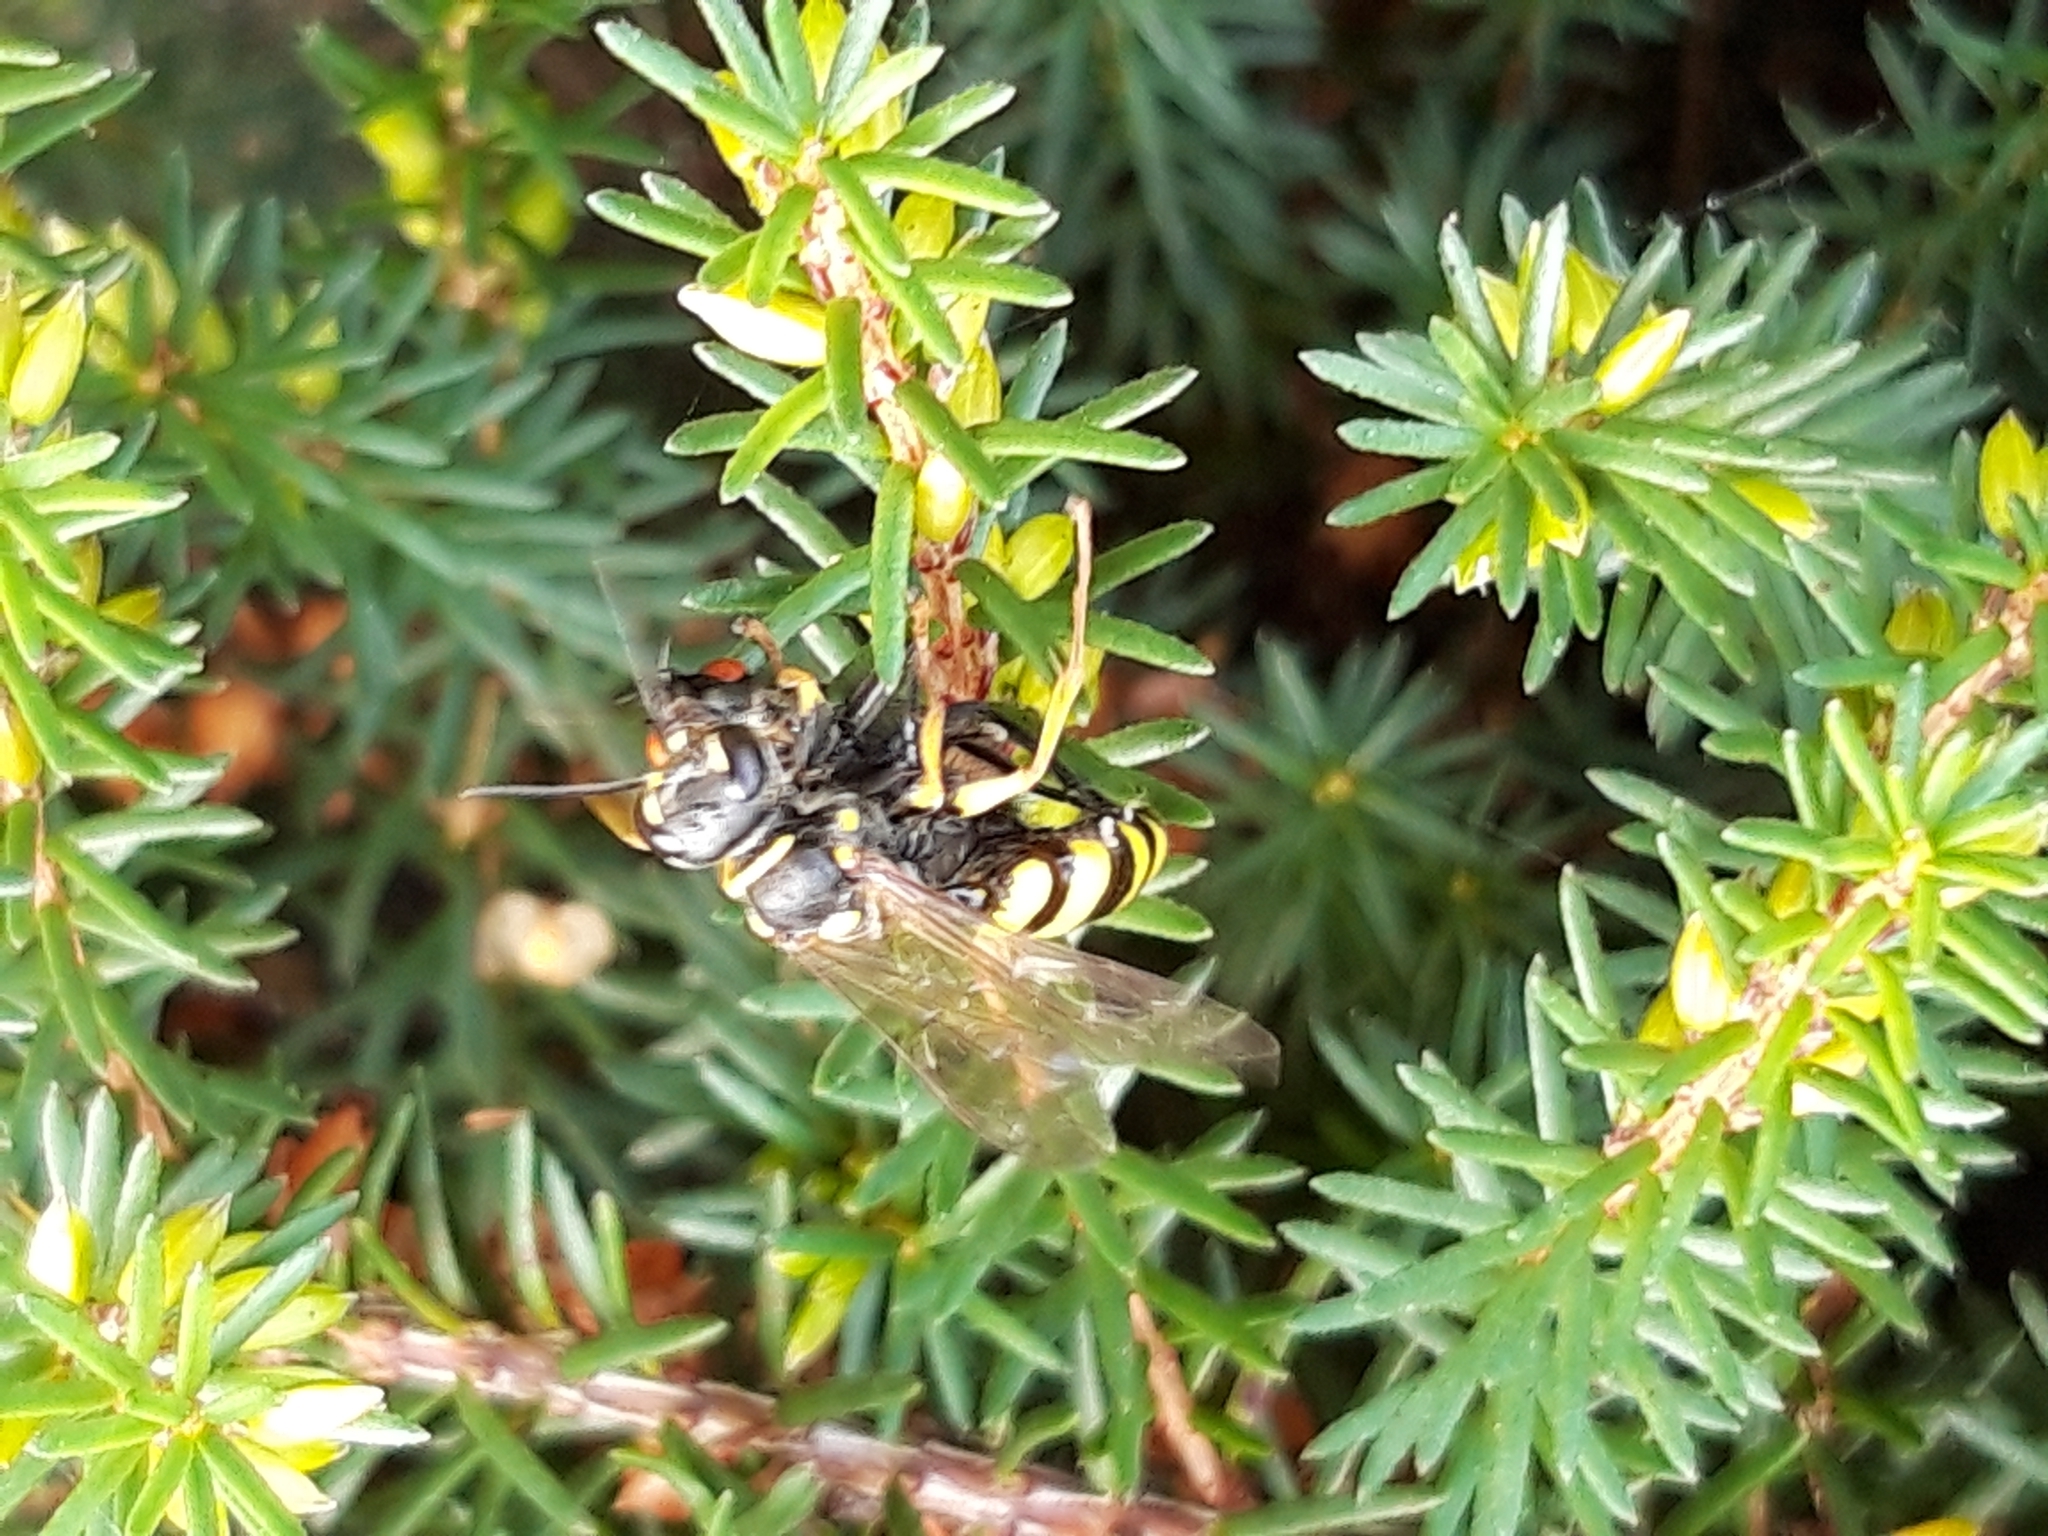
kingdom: Animalia
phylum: Arthropoda
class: Insecta
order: Hymenoptera
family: Crabronidae
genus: Mellinus
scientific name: Mellinus arvensis
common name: Field digger wasp
